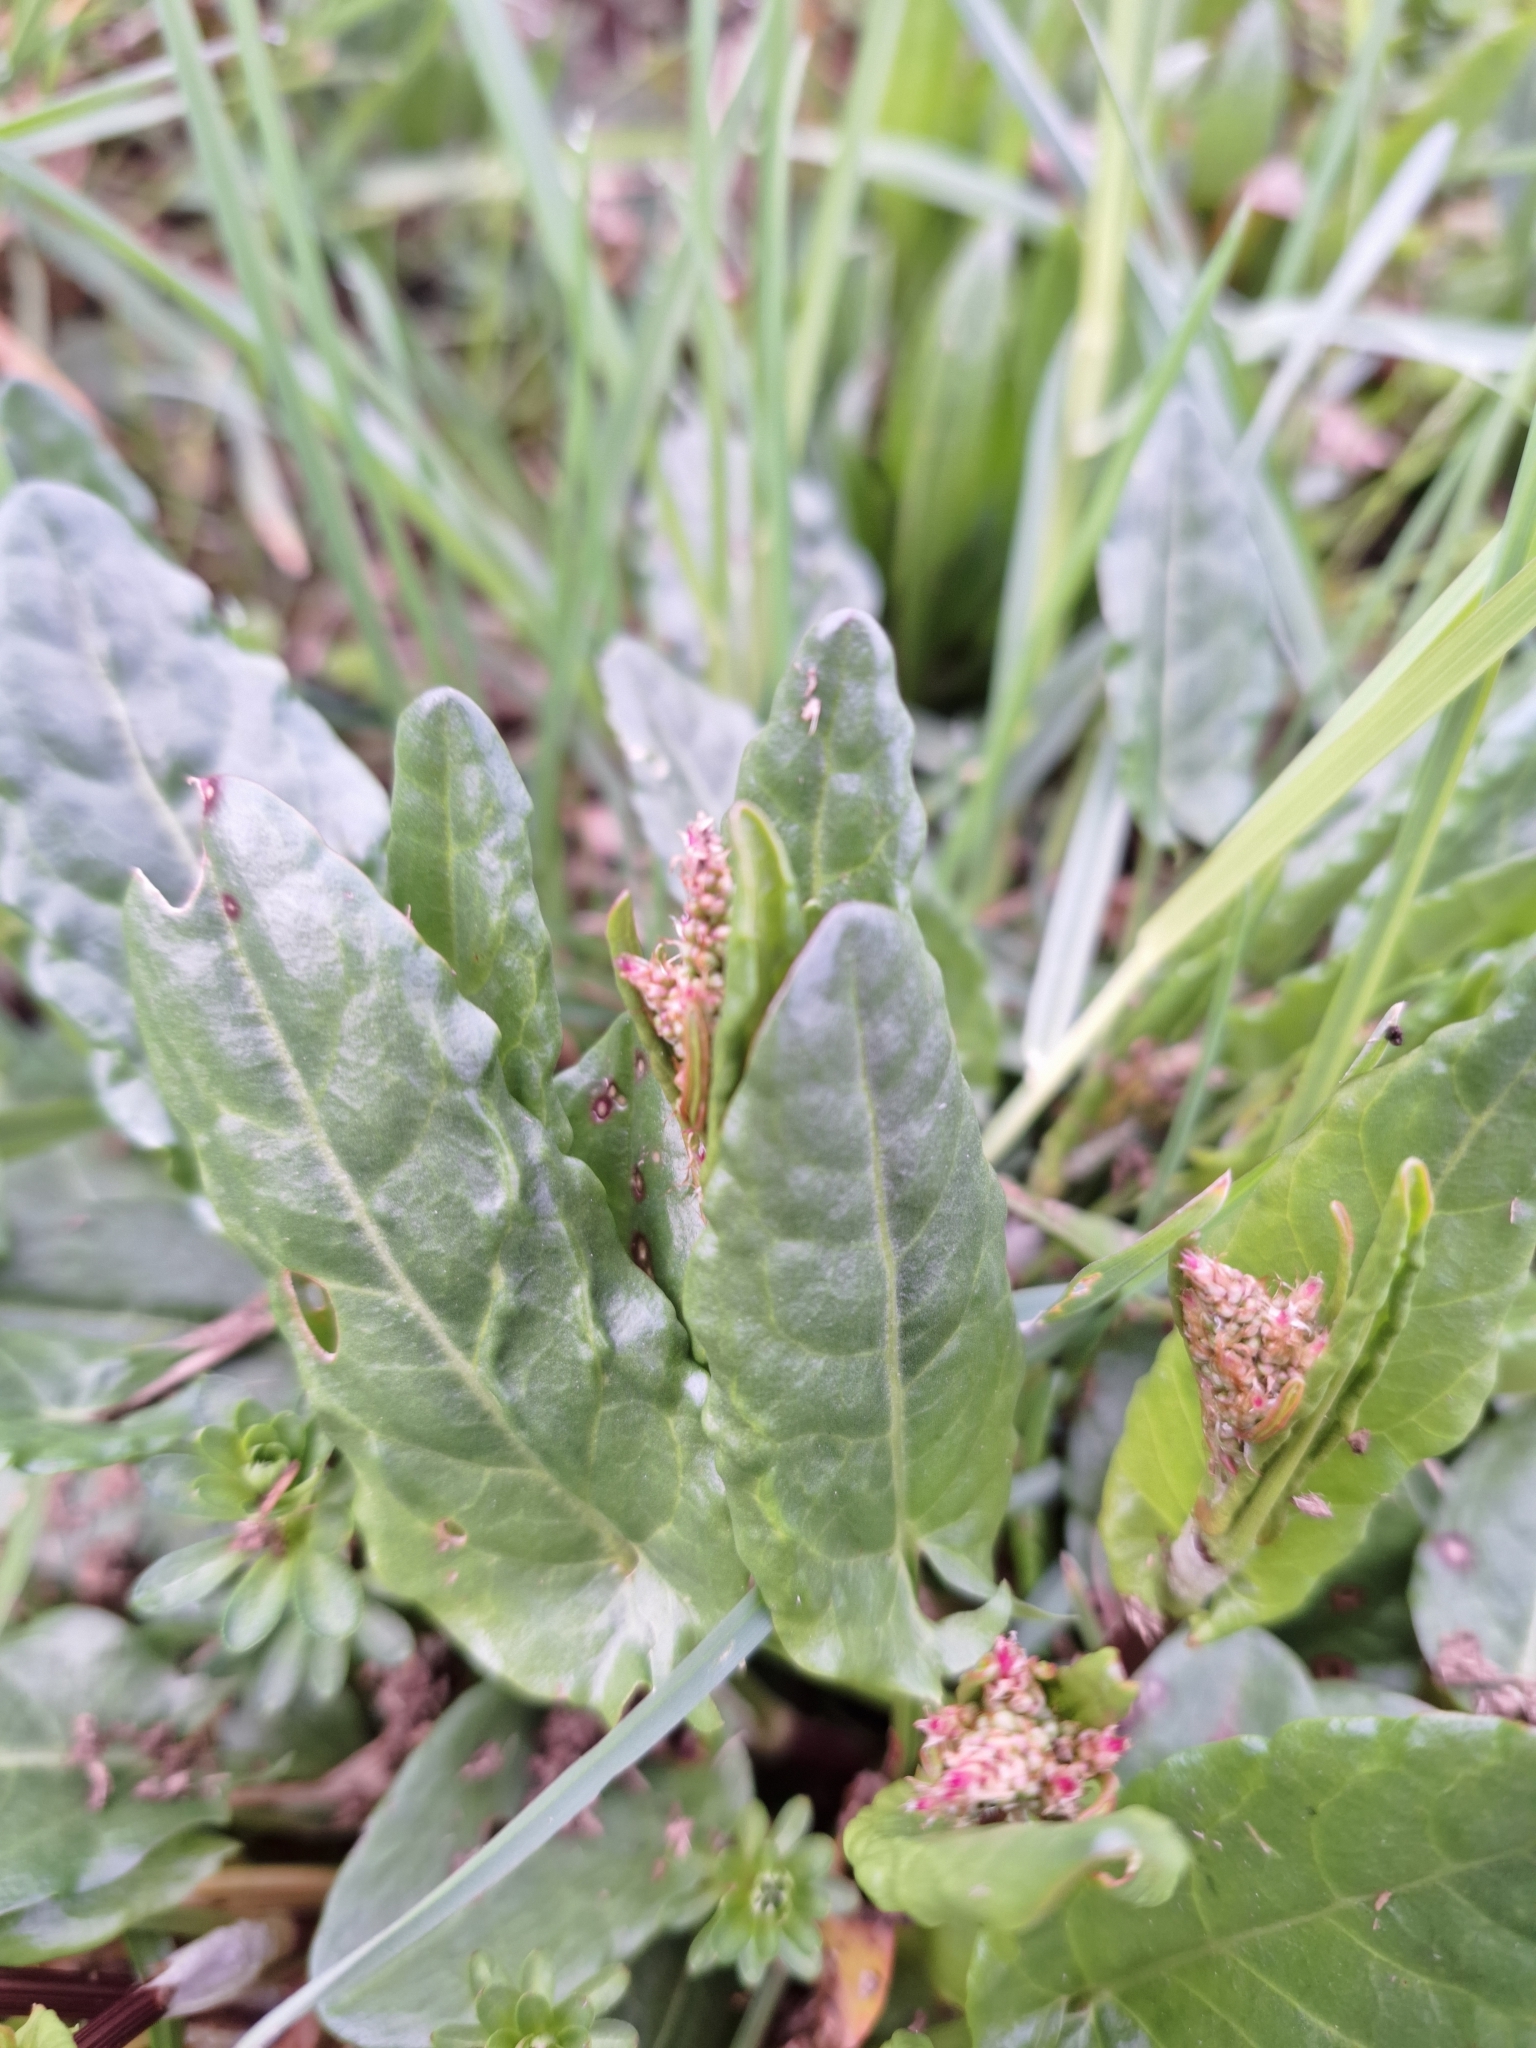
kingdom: Plantae
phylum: Tracheophyta
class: Magnoliopsida
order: Caryophyllales
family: Polygonaceae
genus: Rumex
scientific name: Rumex acetosa
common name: Garden sorrel
